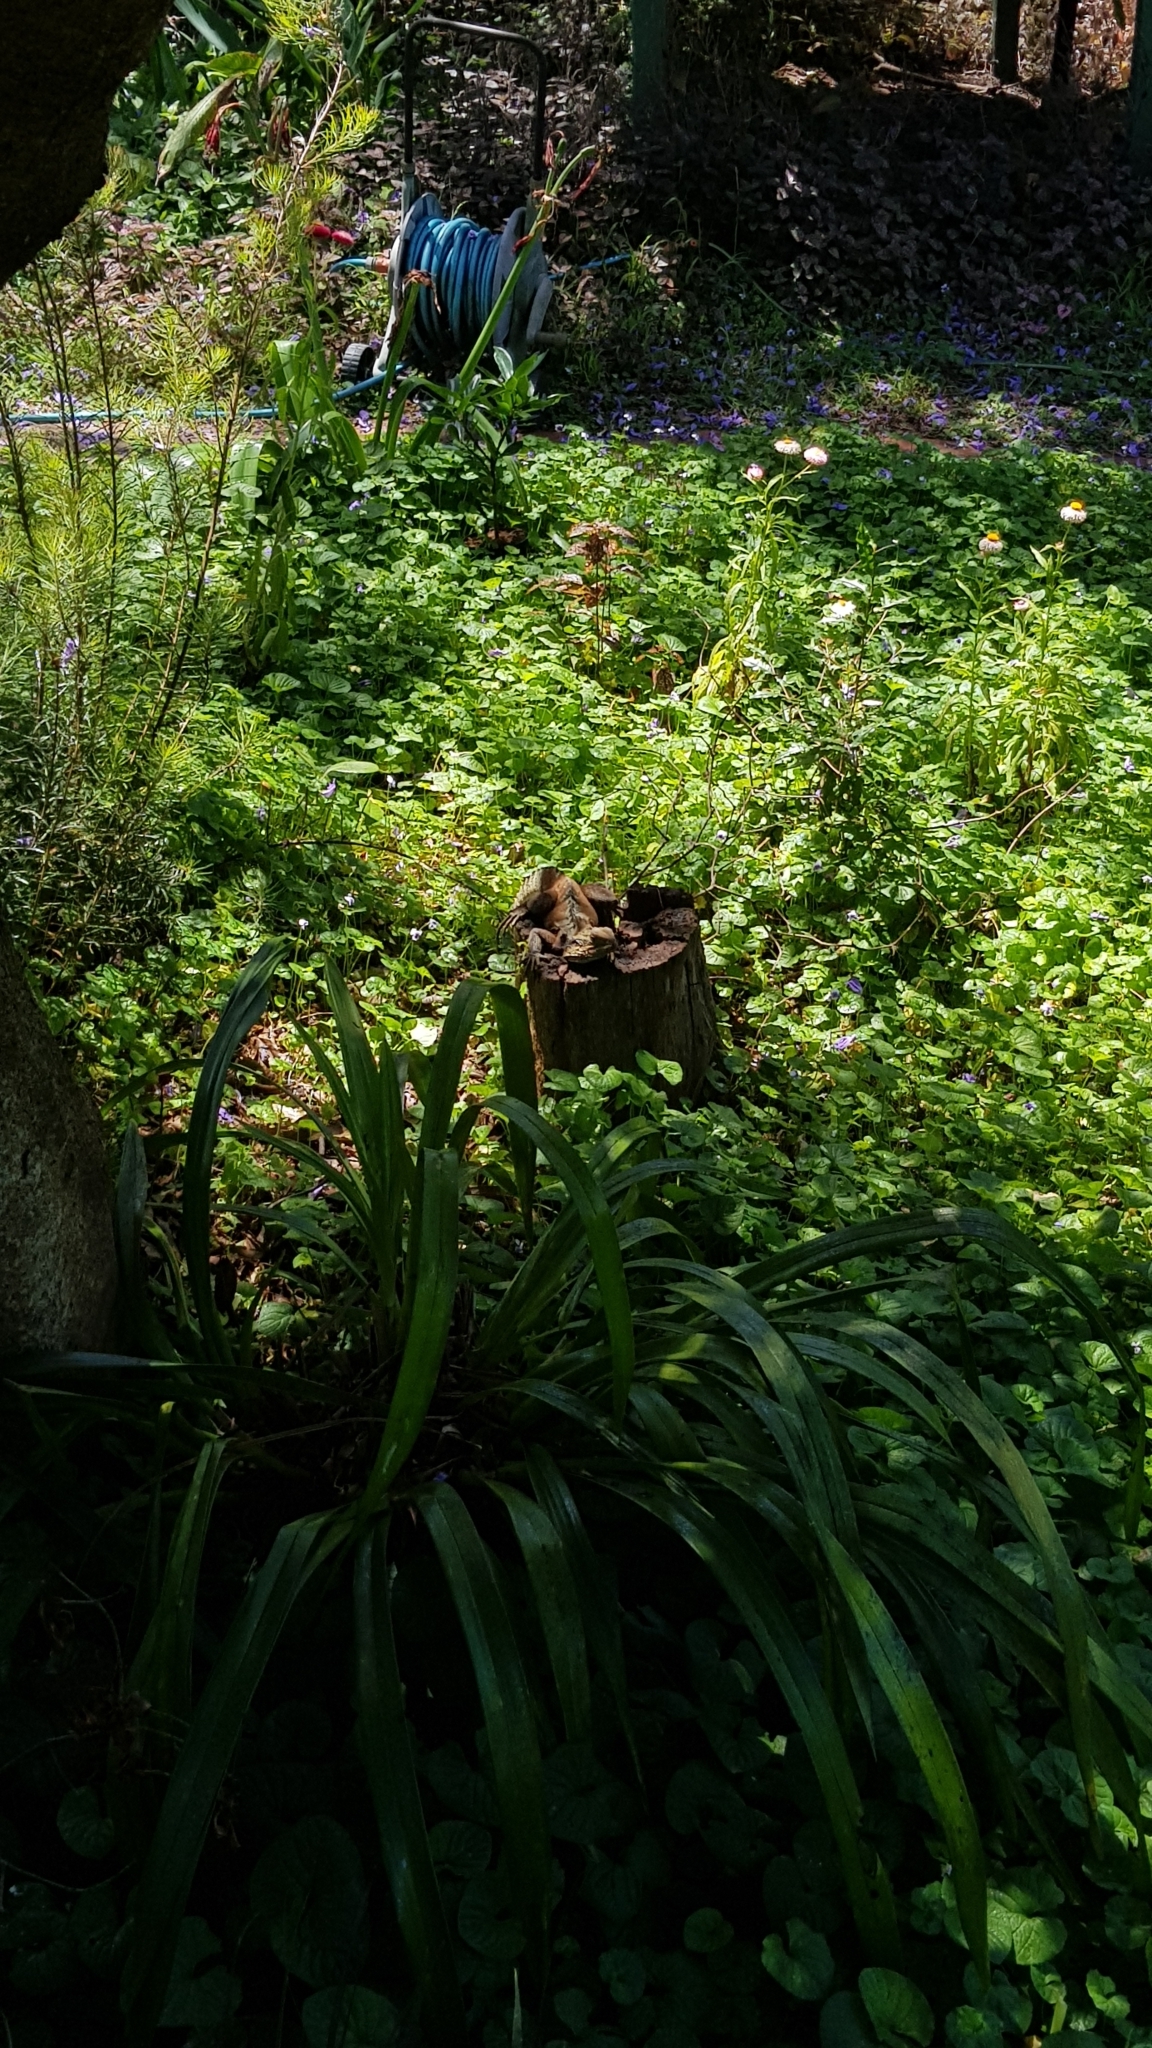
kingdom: Animalia
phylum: Chordata
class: Squamata
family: Agamidae
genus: Intellagama
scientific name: Intellagama lesueurii
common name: Eastern water dragon
